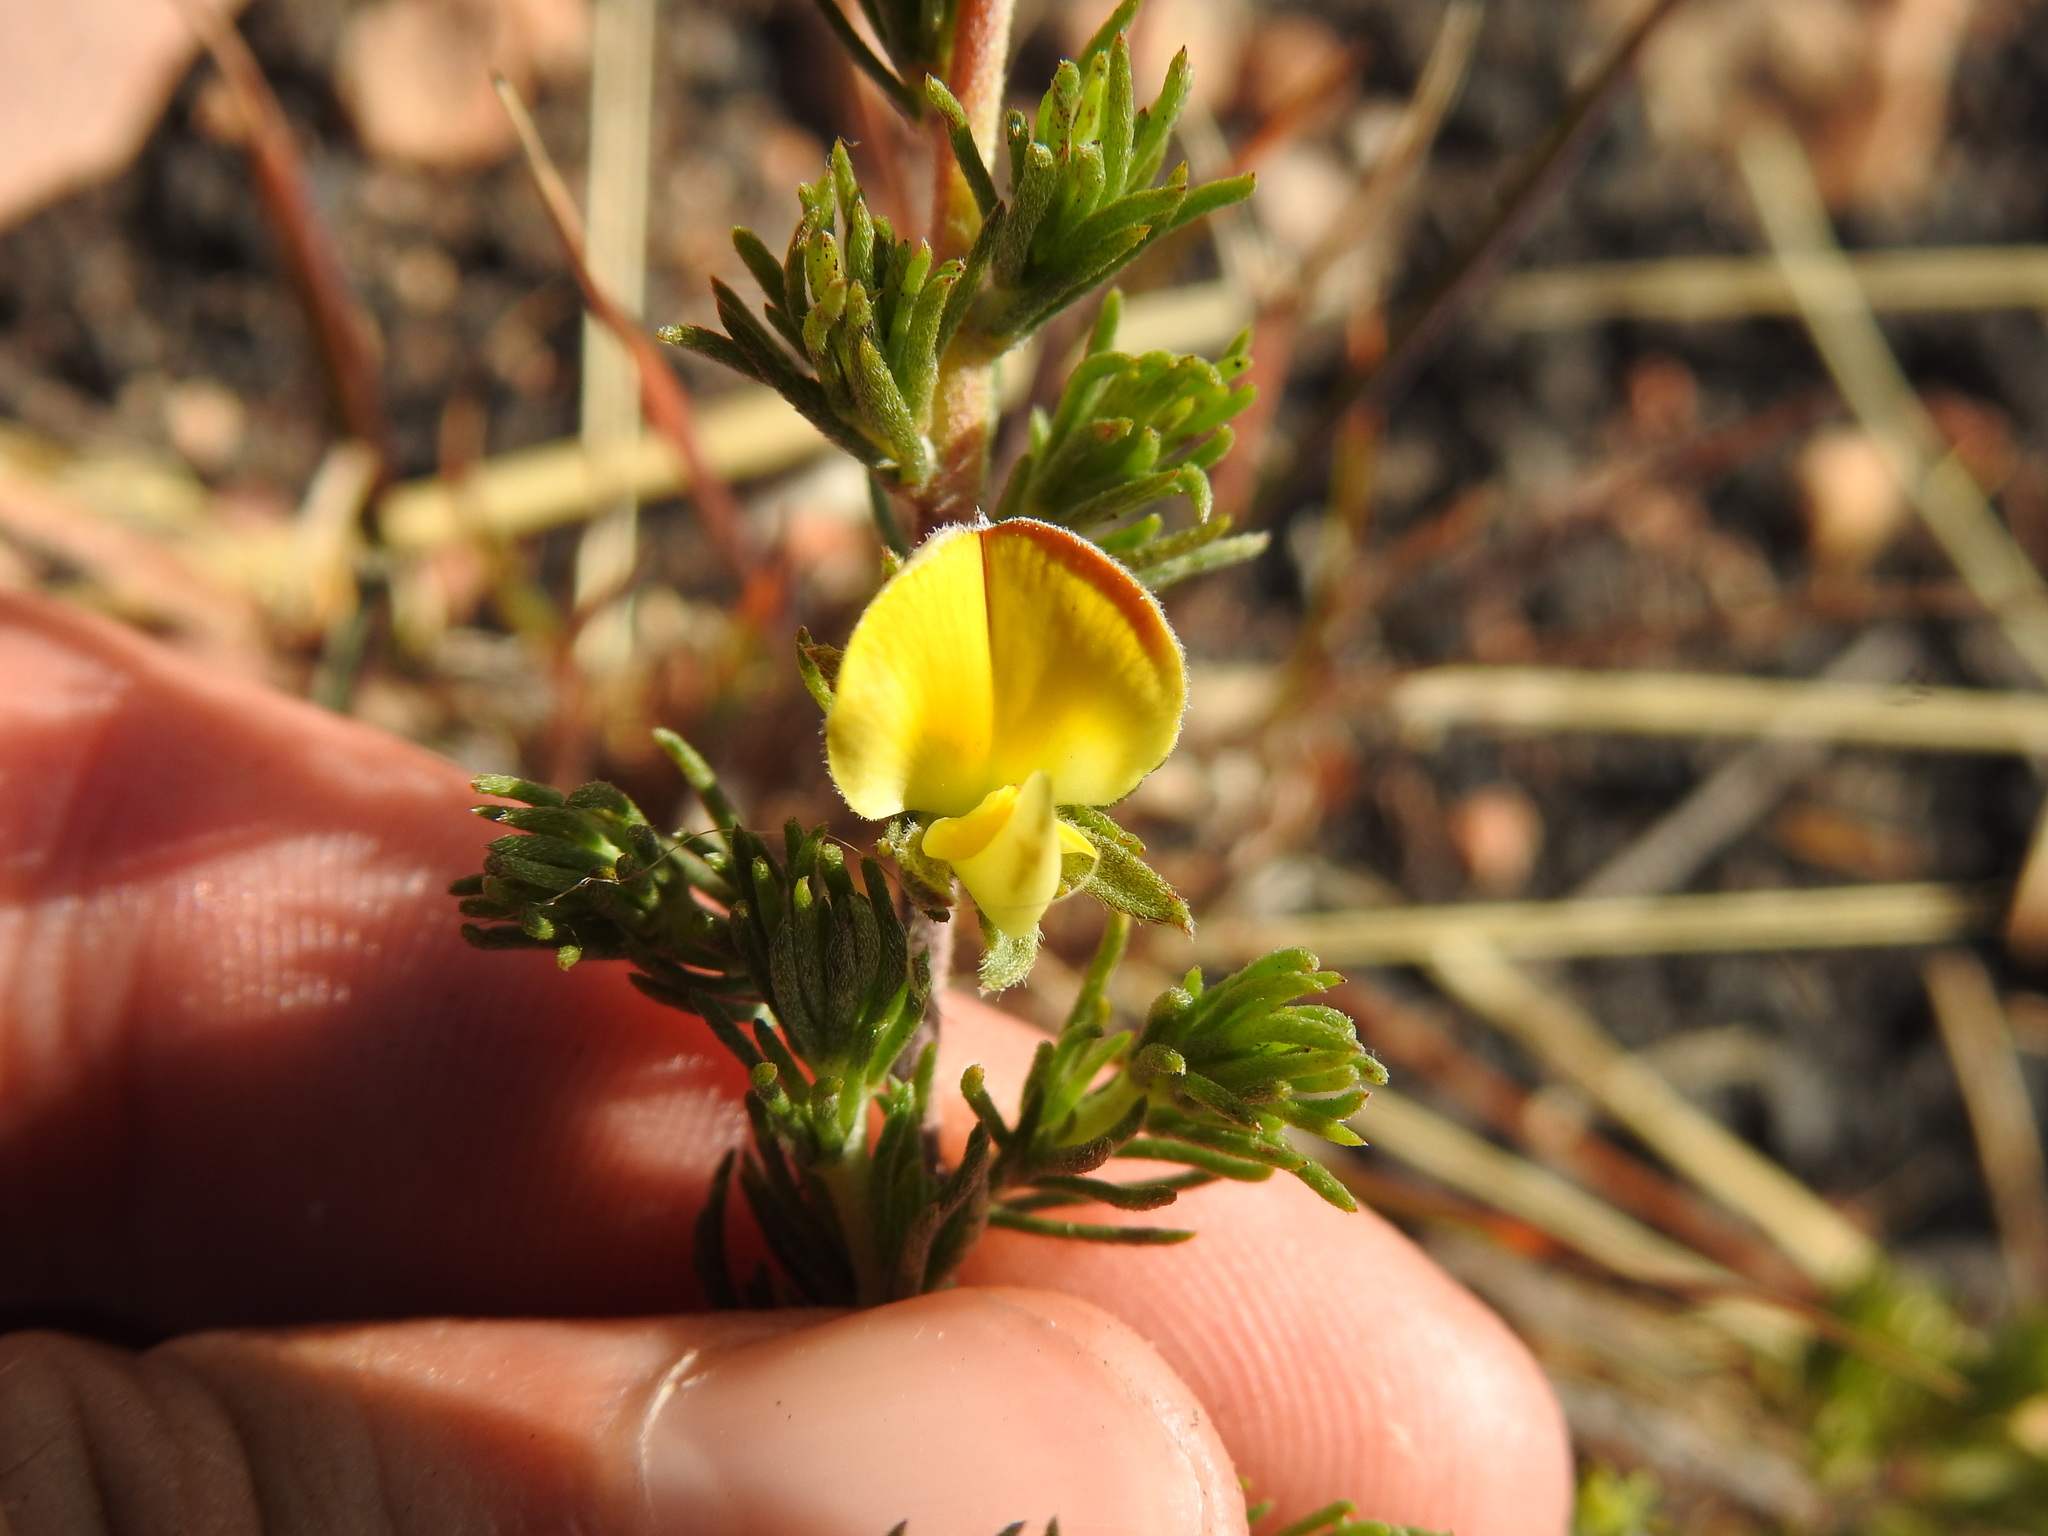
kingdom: Plantae
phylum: Tracheophyta
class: Magnoliopsida
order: Fabales
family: Fabaceae
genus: Aspalathus
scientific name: Aspalathus linguiloba
